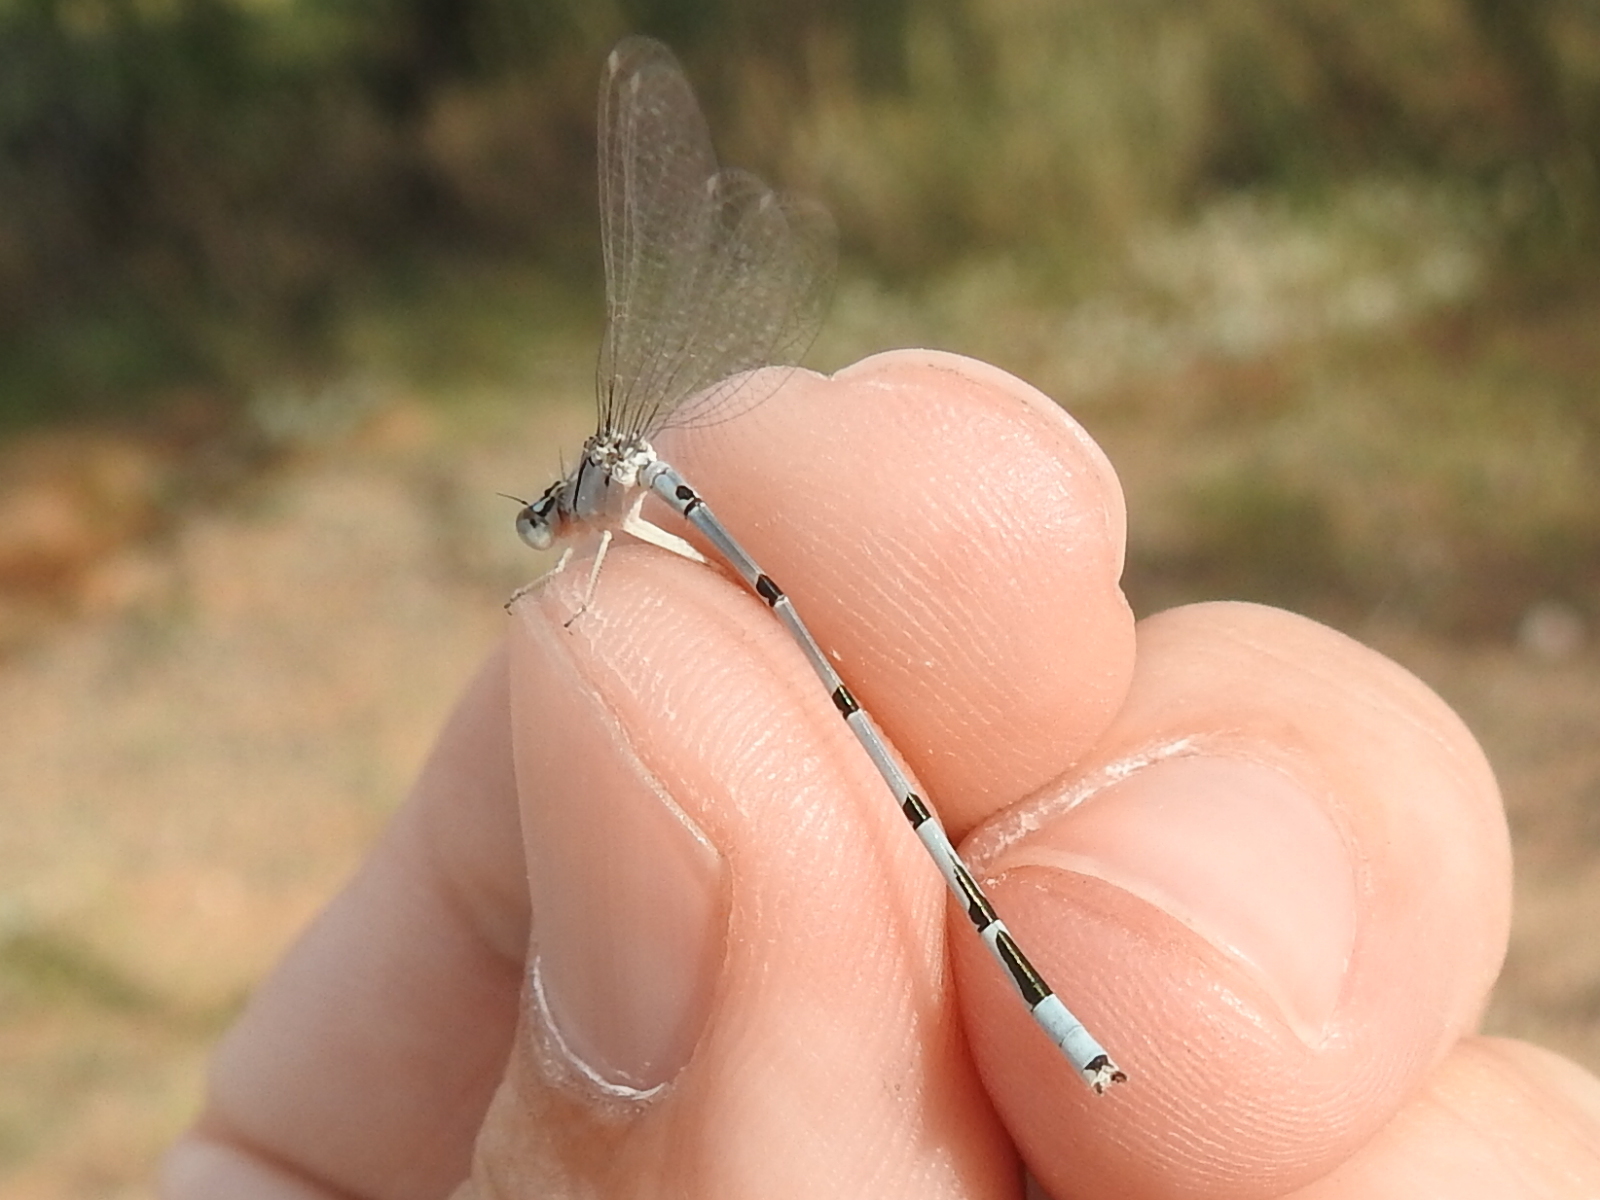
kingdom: Animalia
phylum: Arthropoda
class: Insecta
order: Odonata
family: Coenagrionidae
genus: Enallagma
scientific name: Enallagma civile
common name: Damselfly
